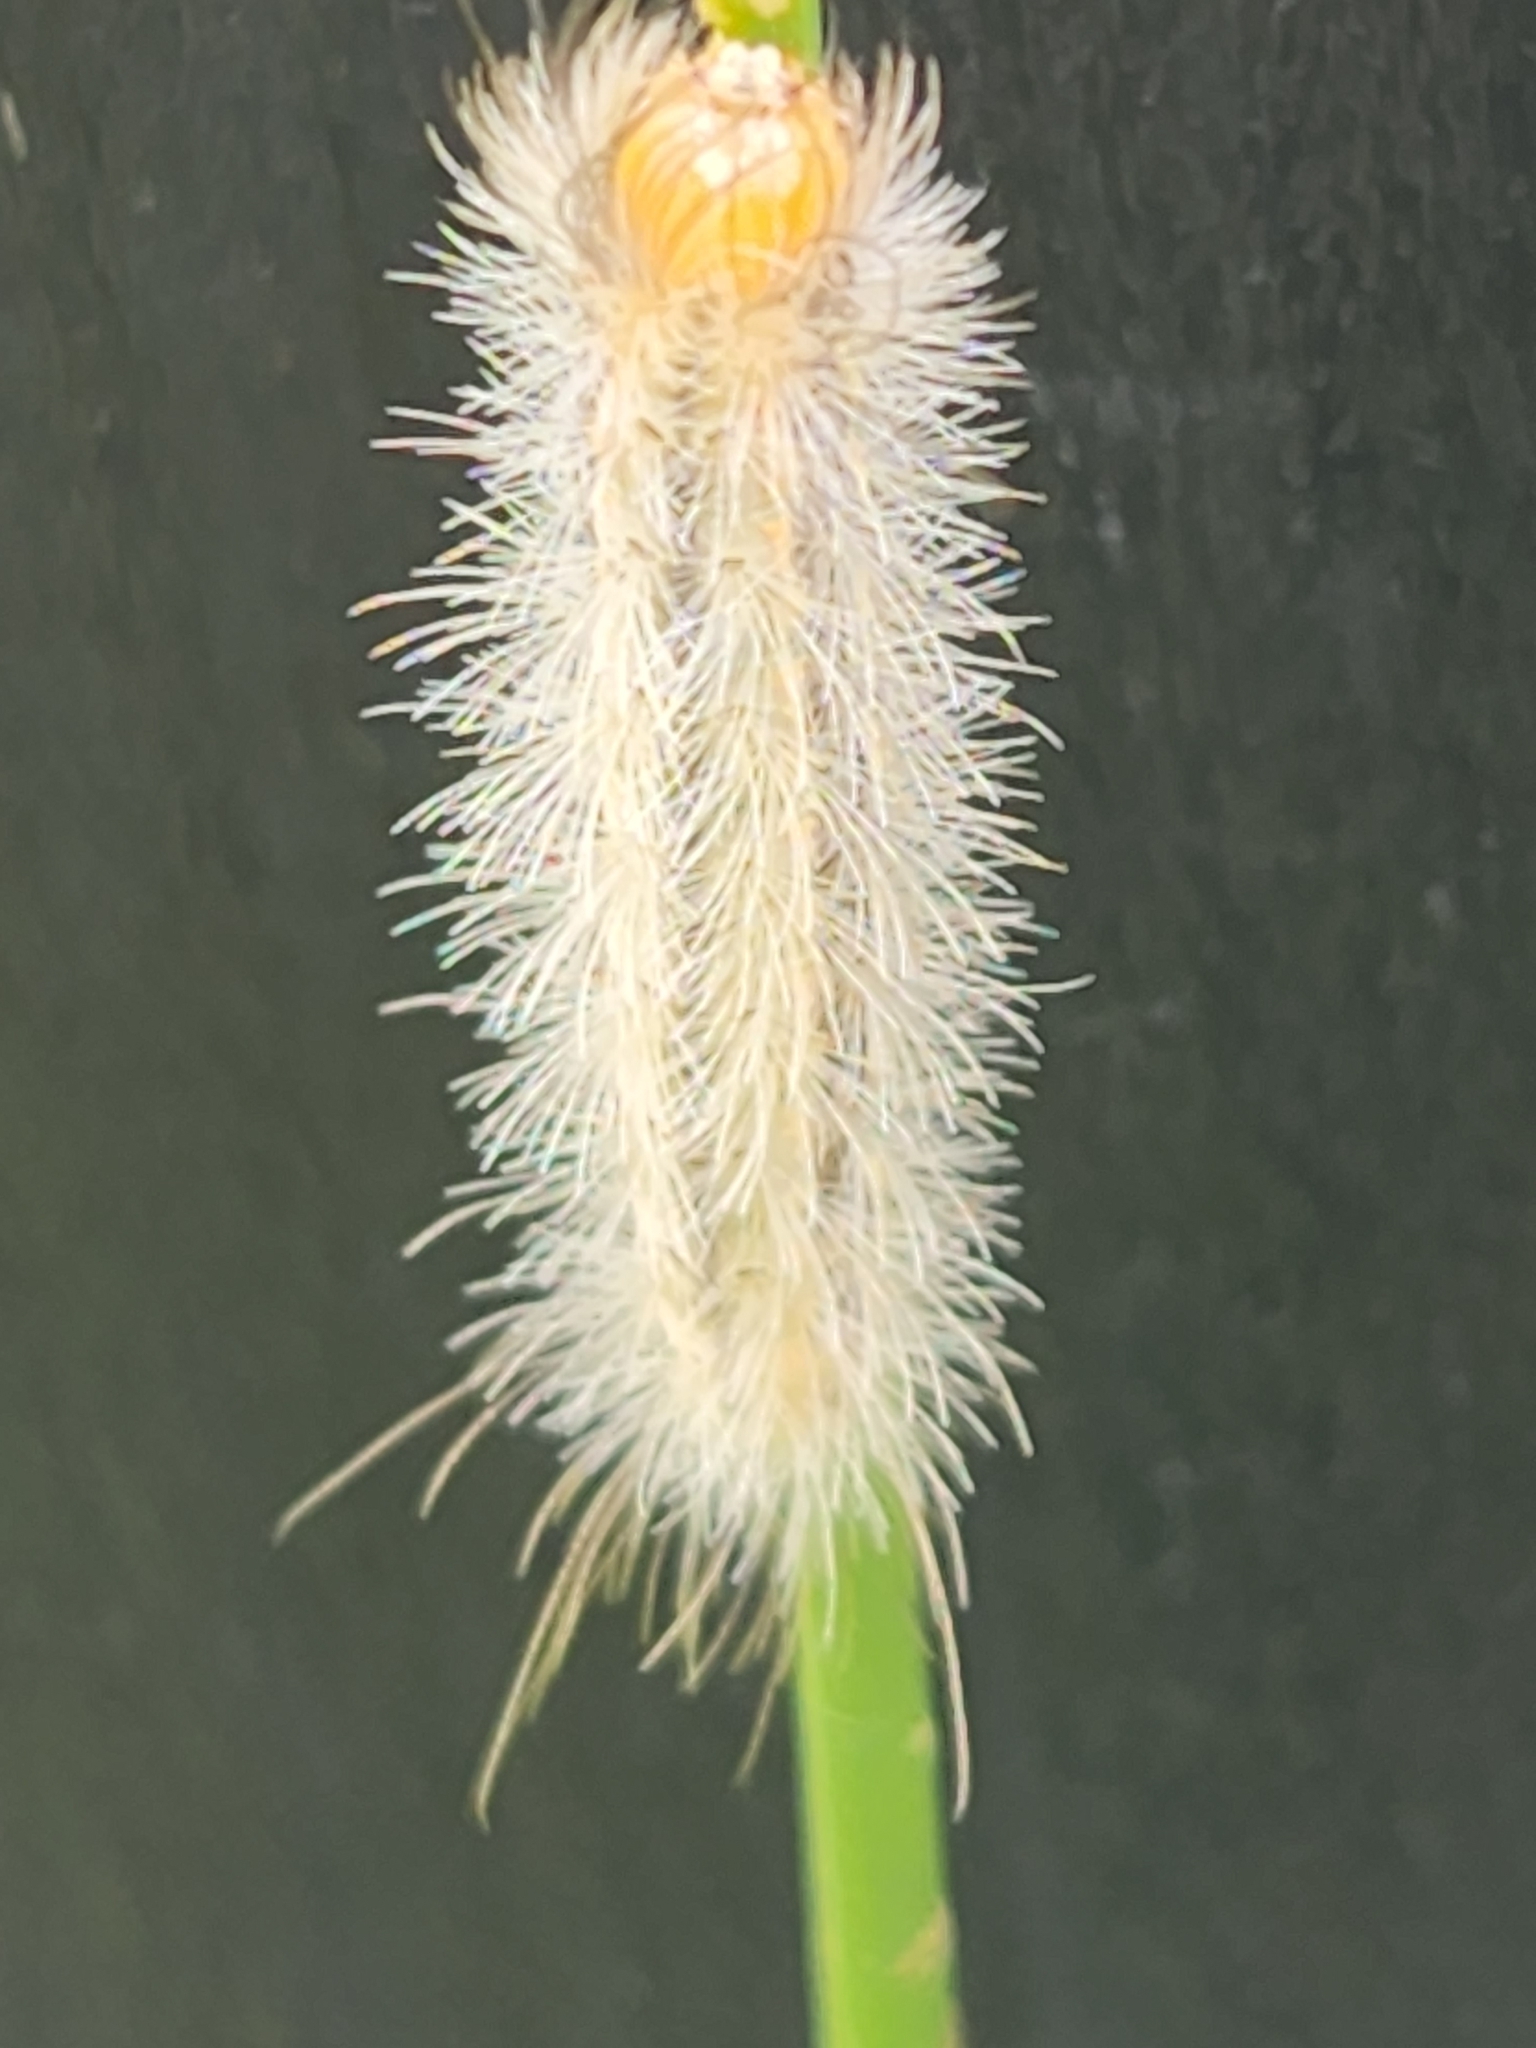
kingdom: Animalia
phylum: Arthropoda
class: Insecta
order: Lepidoptera
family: Erebidae
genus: Cisseps
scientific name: Cisseps fulvicollis
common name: Yellow-collared scape moth
